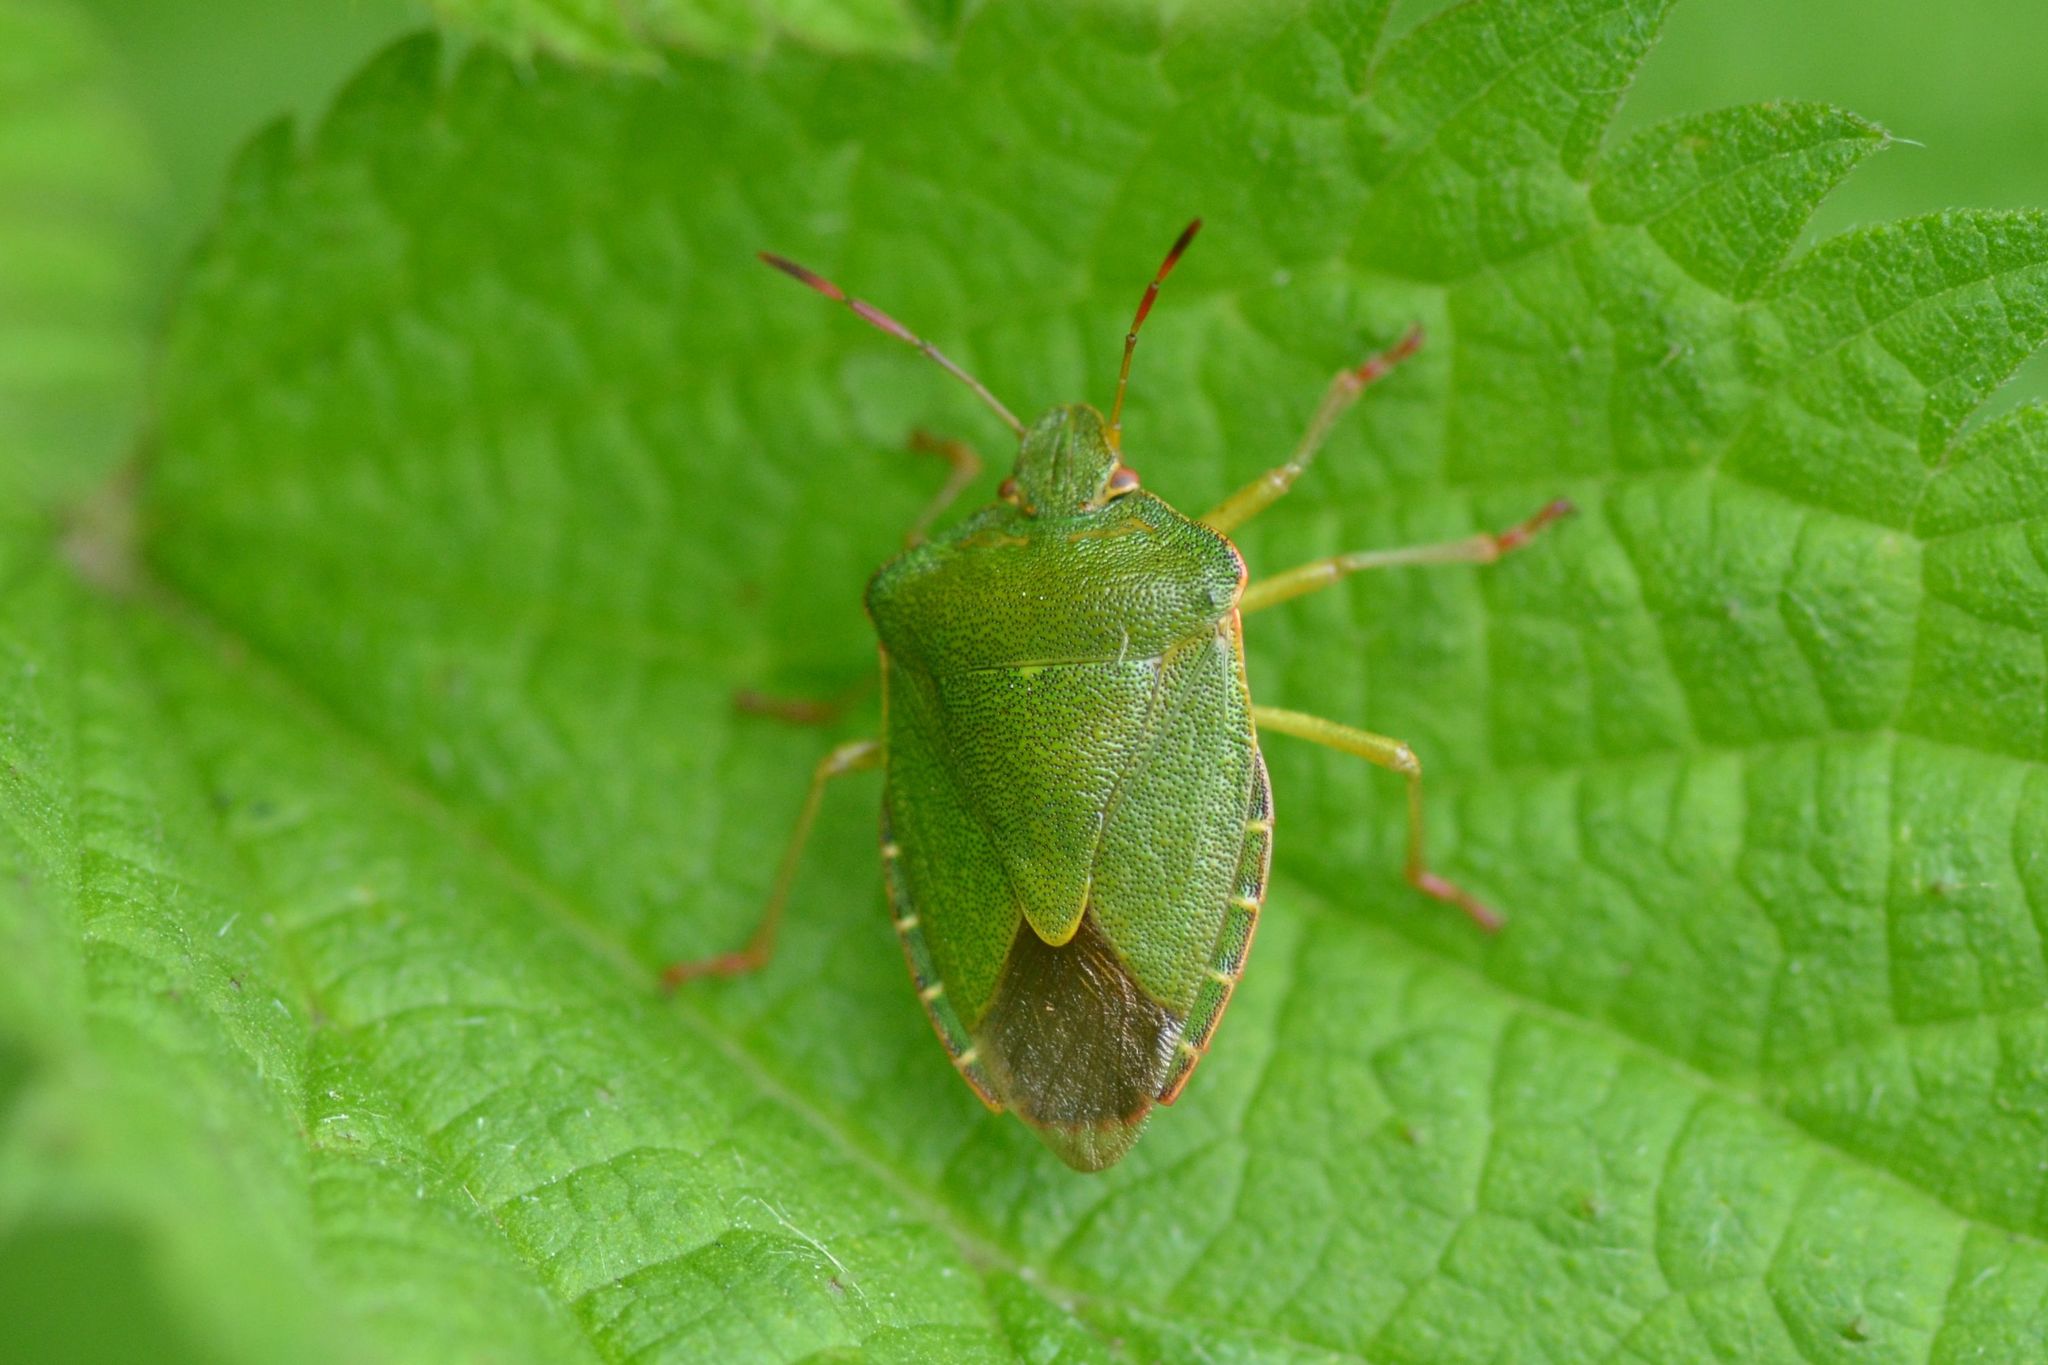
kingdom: Animalia
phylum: Arthropoda
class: Insecta
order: Hemiptera
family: Pentatomidae
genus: Palomena
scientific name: Palomena prasina
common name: Green shieldbug
